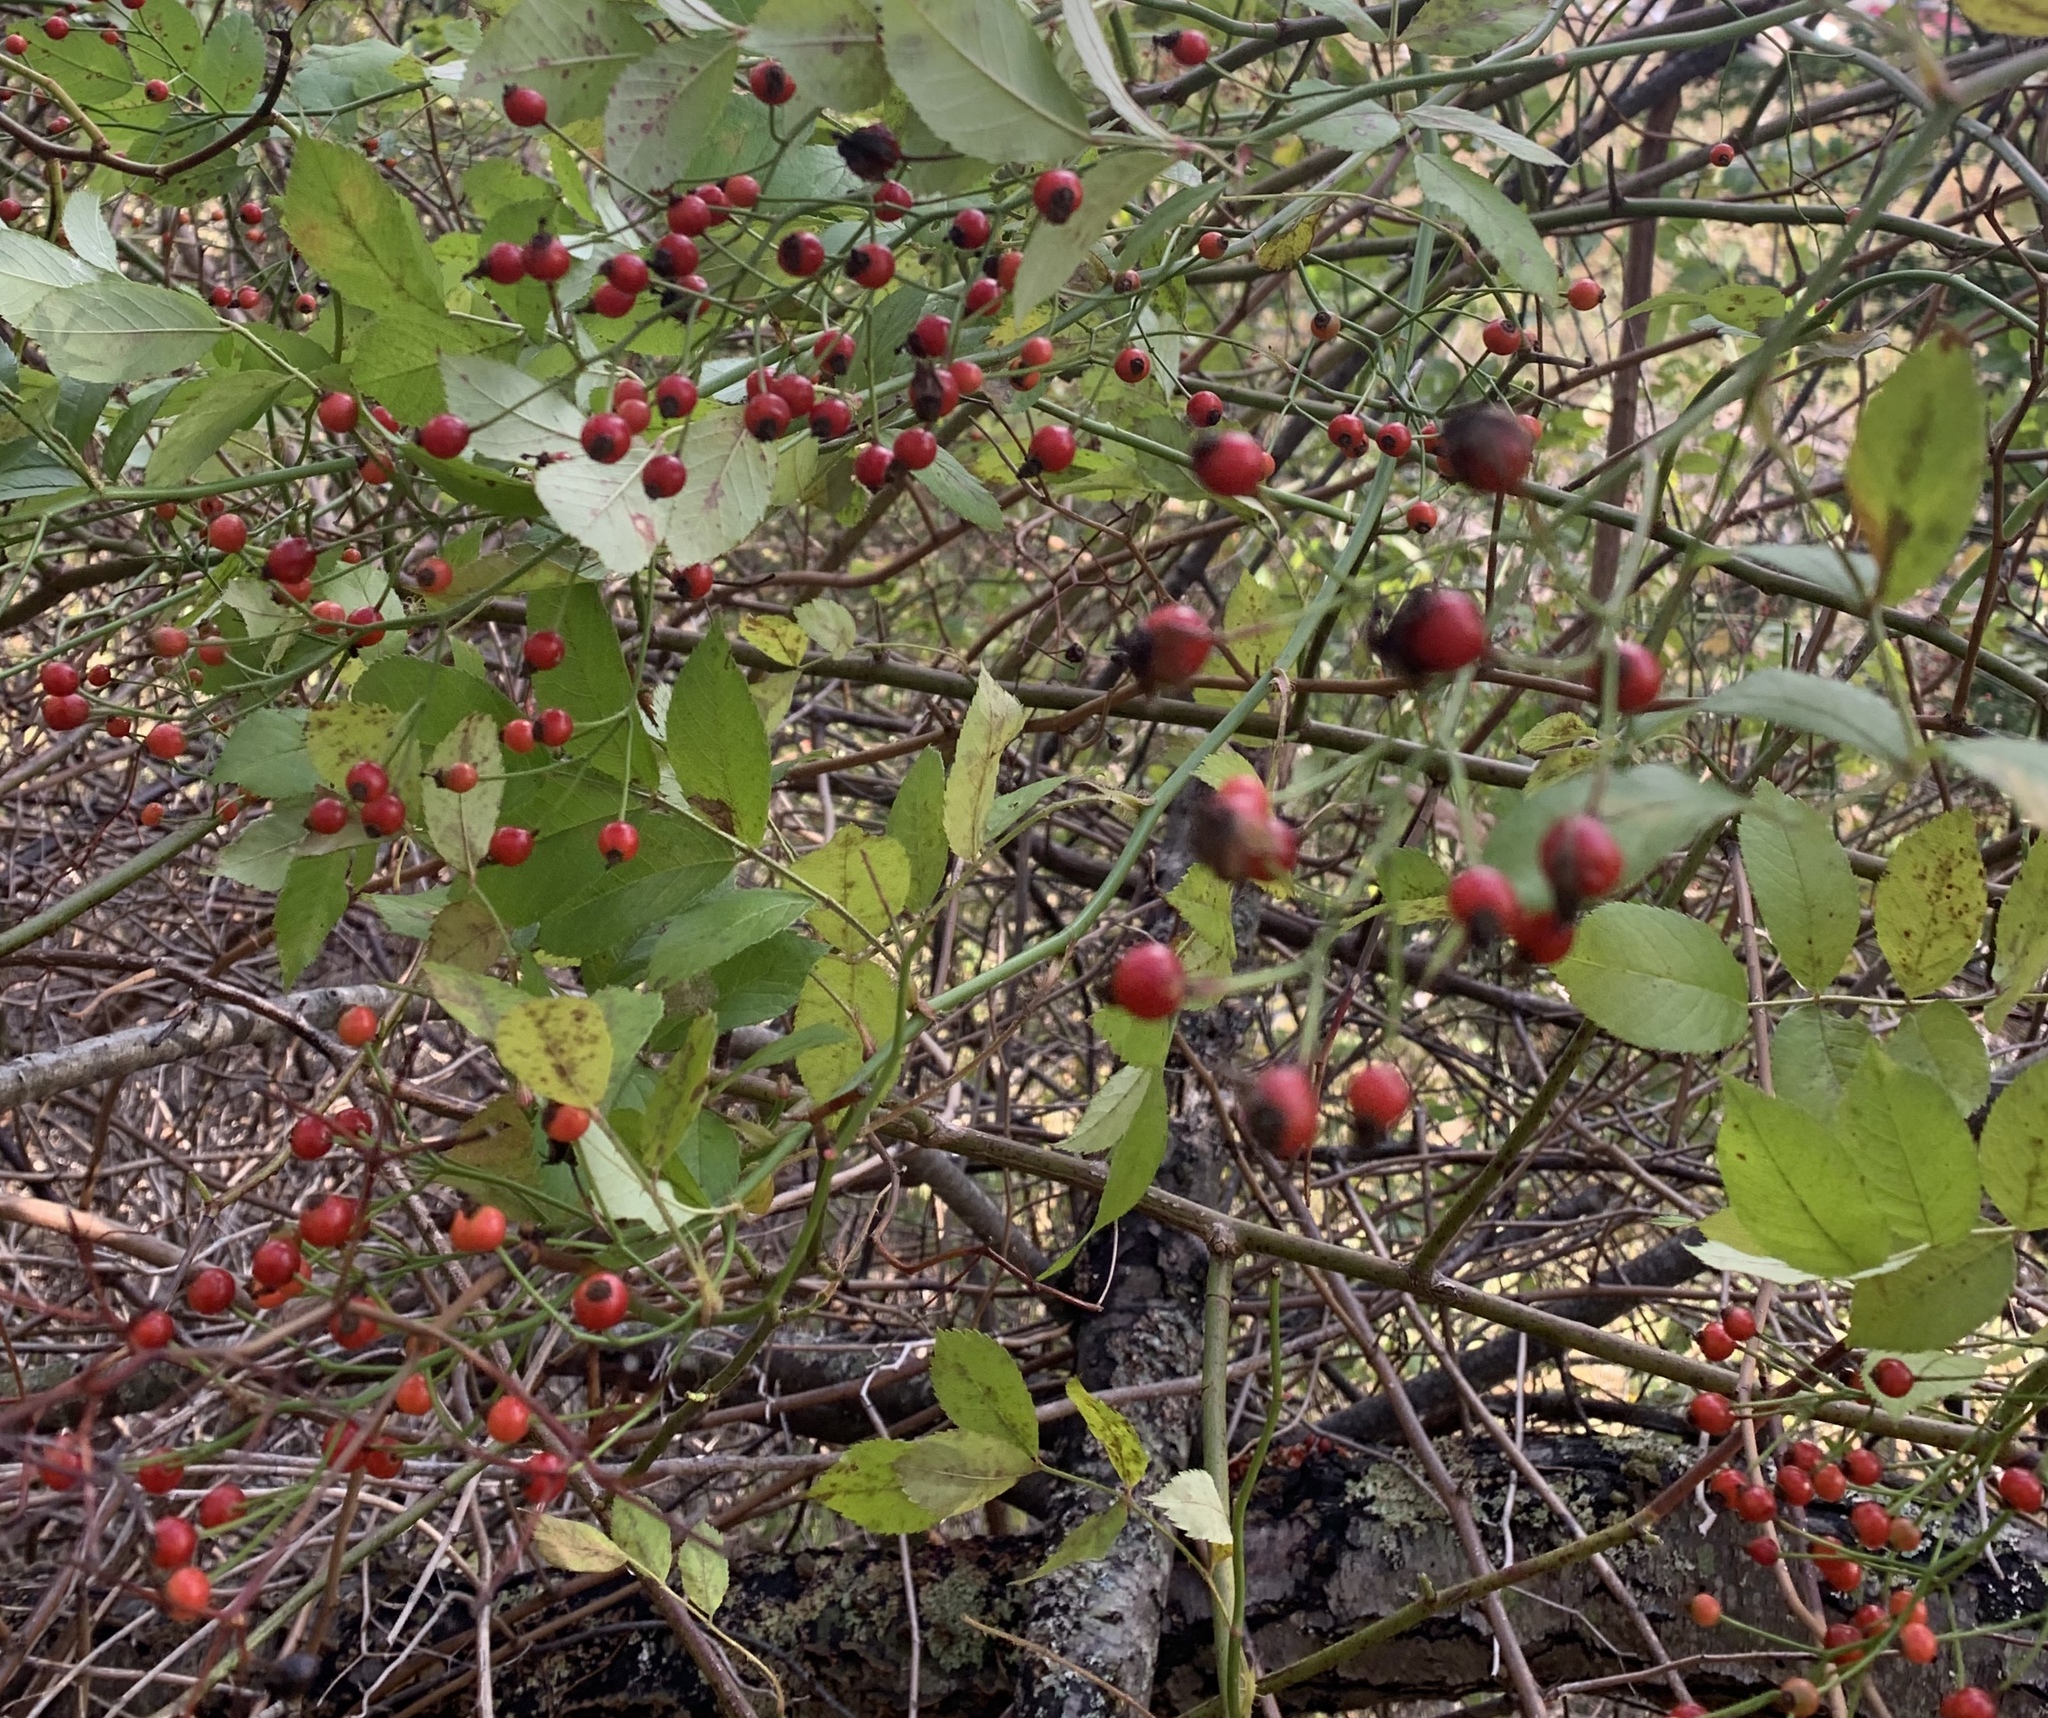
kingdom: Plantae
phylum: Tracheophyta
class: Magnoliopsida
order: Rosales
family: Rosaceae
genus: Rosa
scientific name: Rosa multiflora
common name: Multiflora rose
